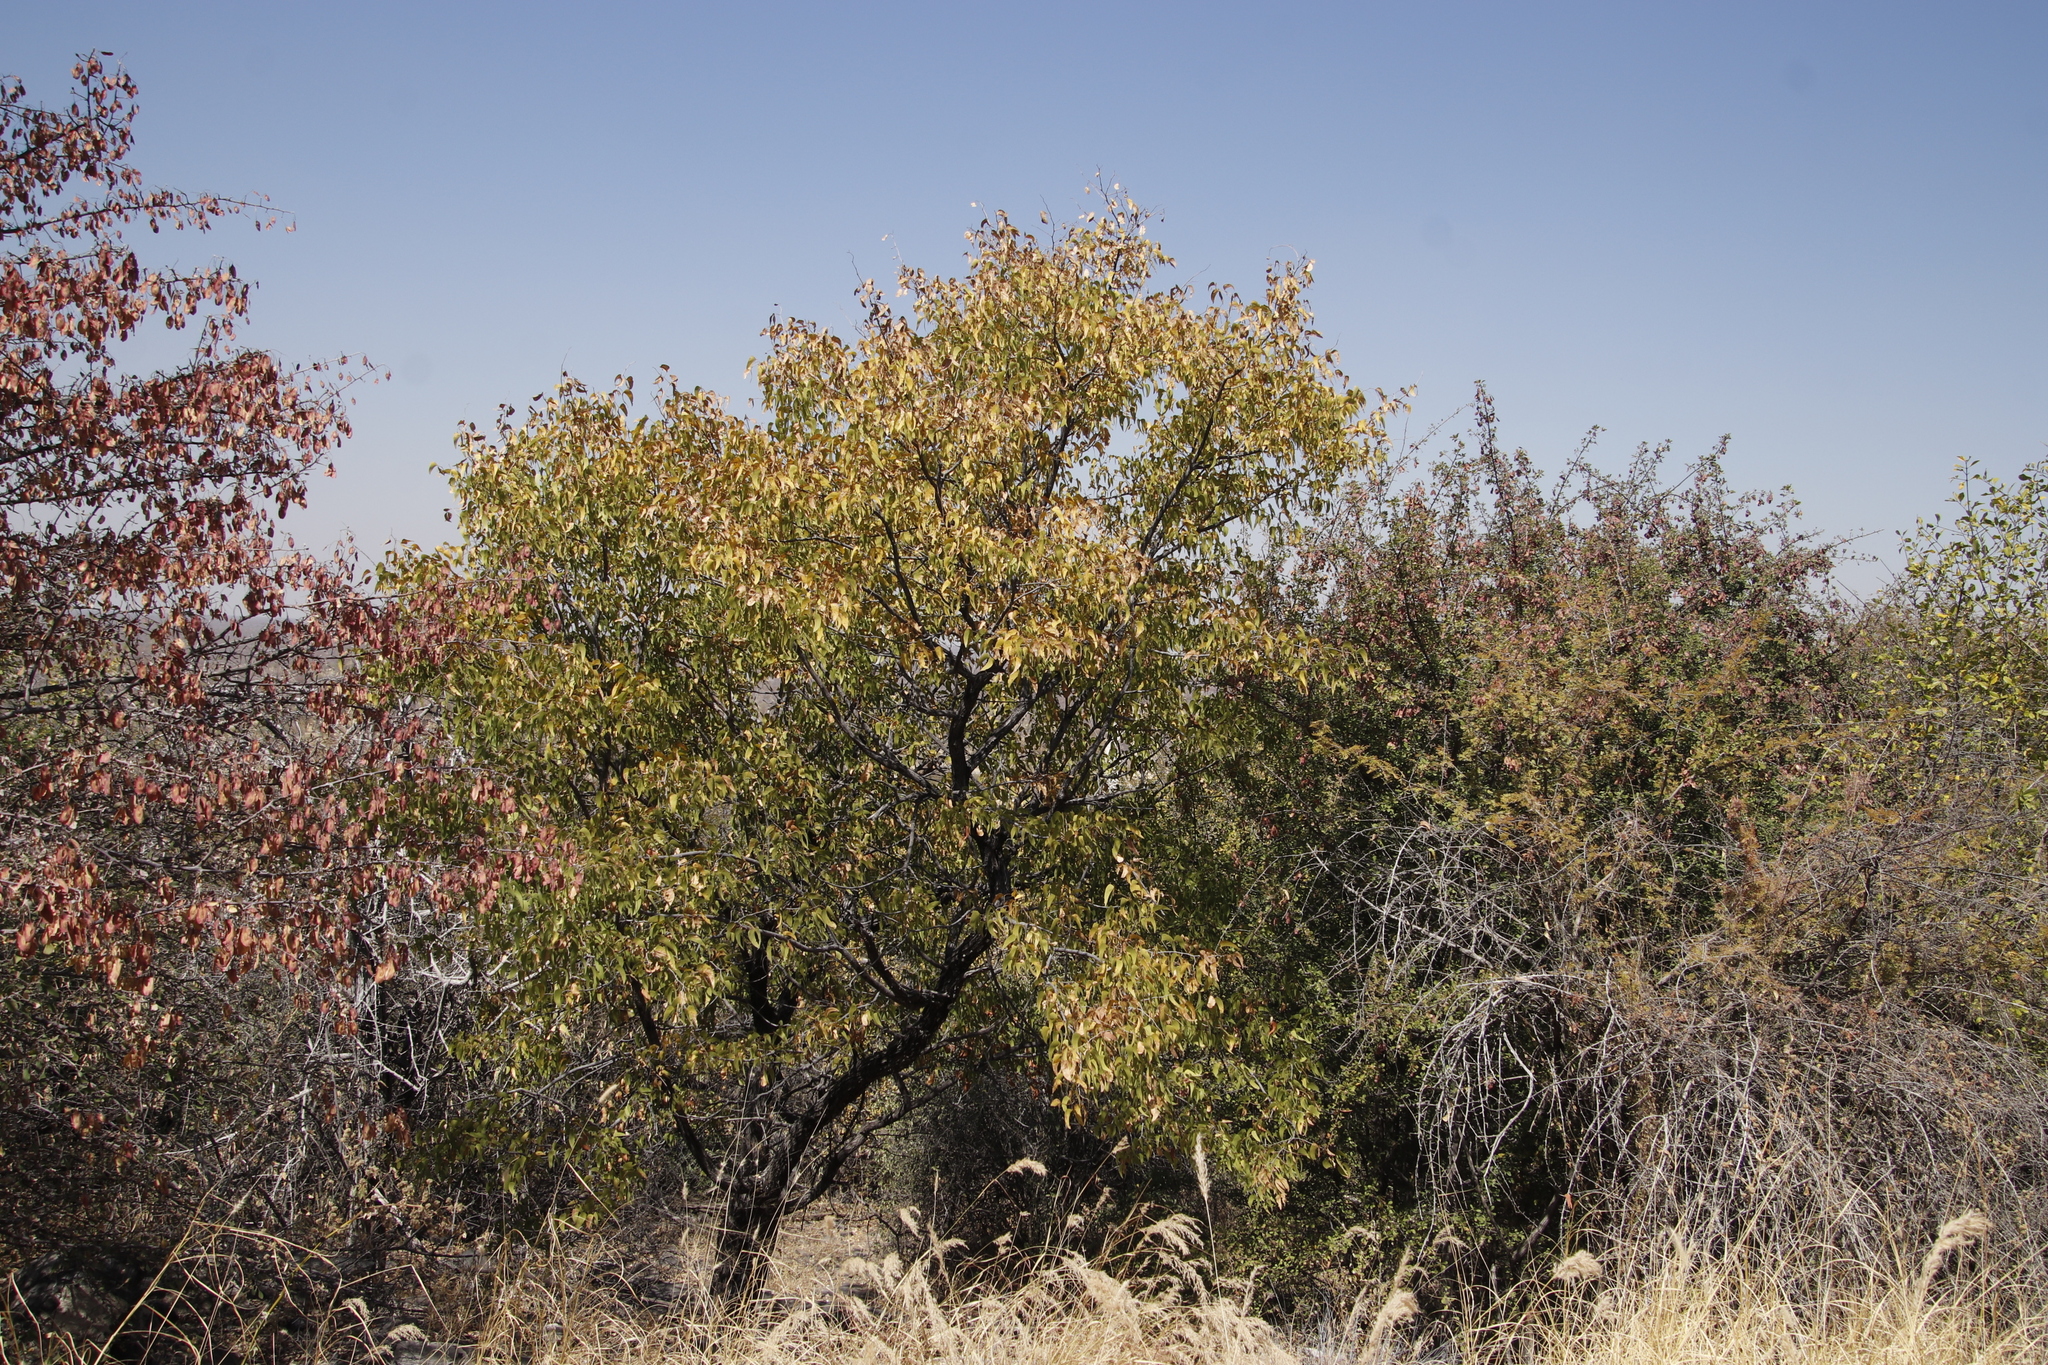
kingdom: Plantae
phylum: Tracheophyta
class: Magnoliopsida
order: Fabales
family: Fabaceae
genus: Colophospermum
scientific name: Colophospermum mopane
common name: Mopane
